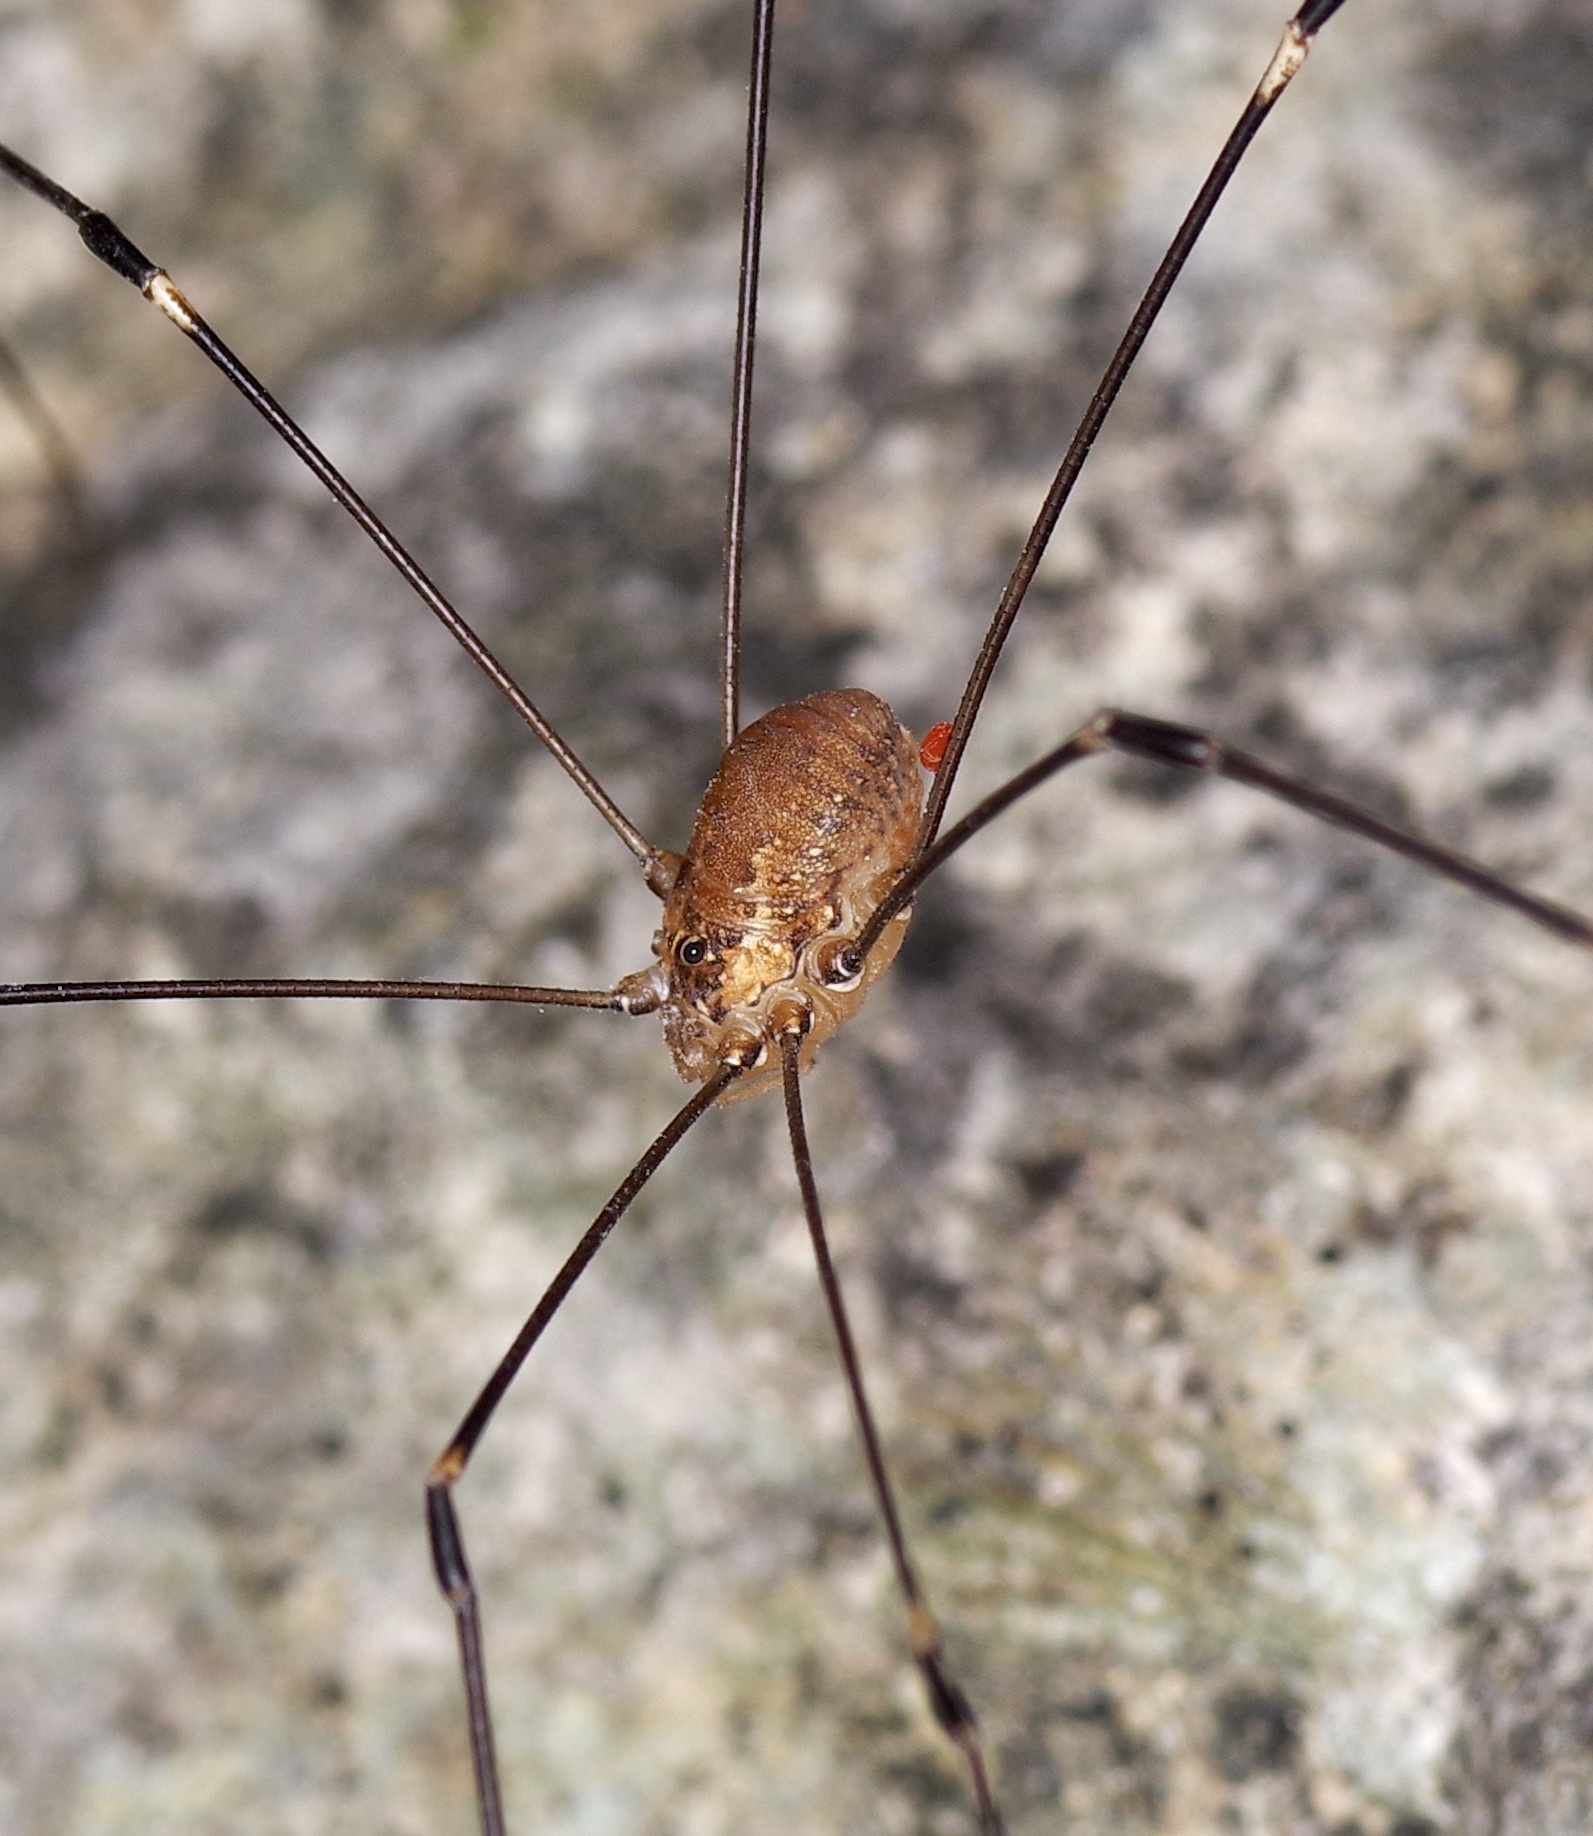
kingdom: Animalia
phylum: Arthropoda
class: Arachnida
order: Opiliones
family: Sclerosomatidae
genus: Leiobunum
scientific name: Leiobunum townsendi
